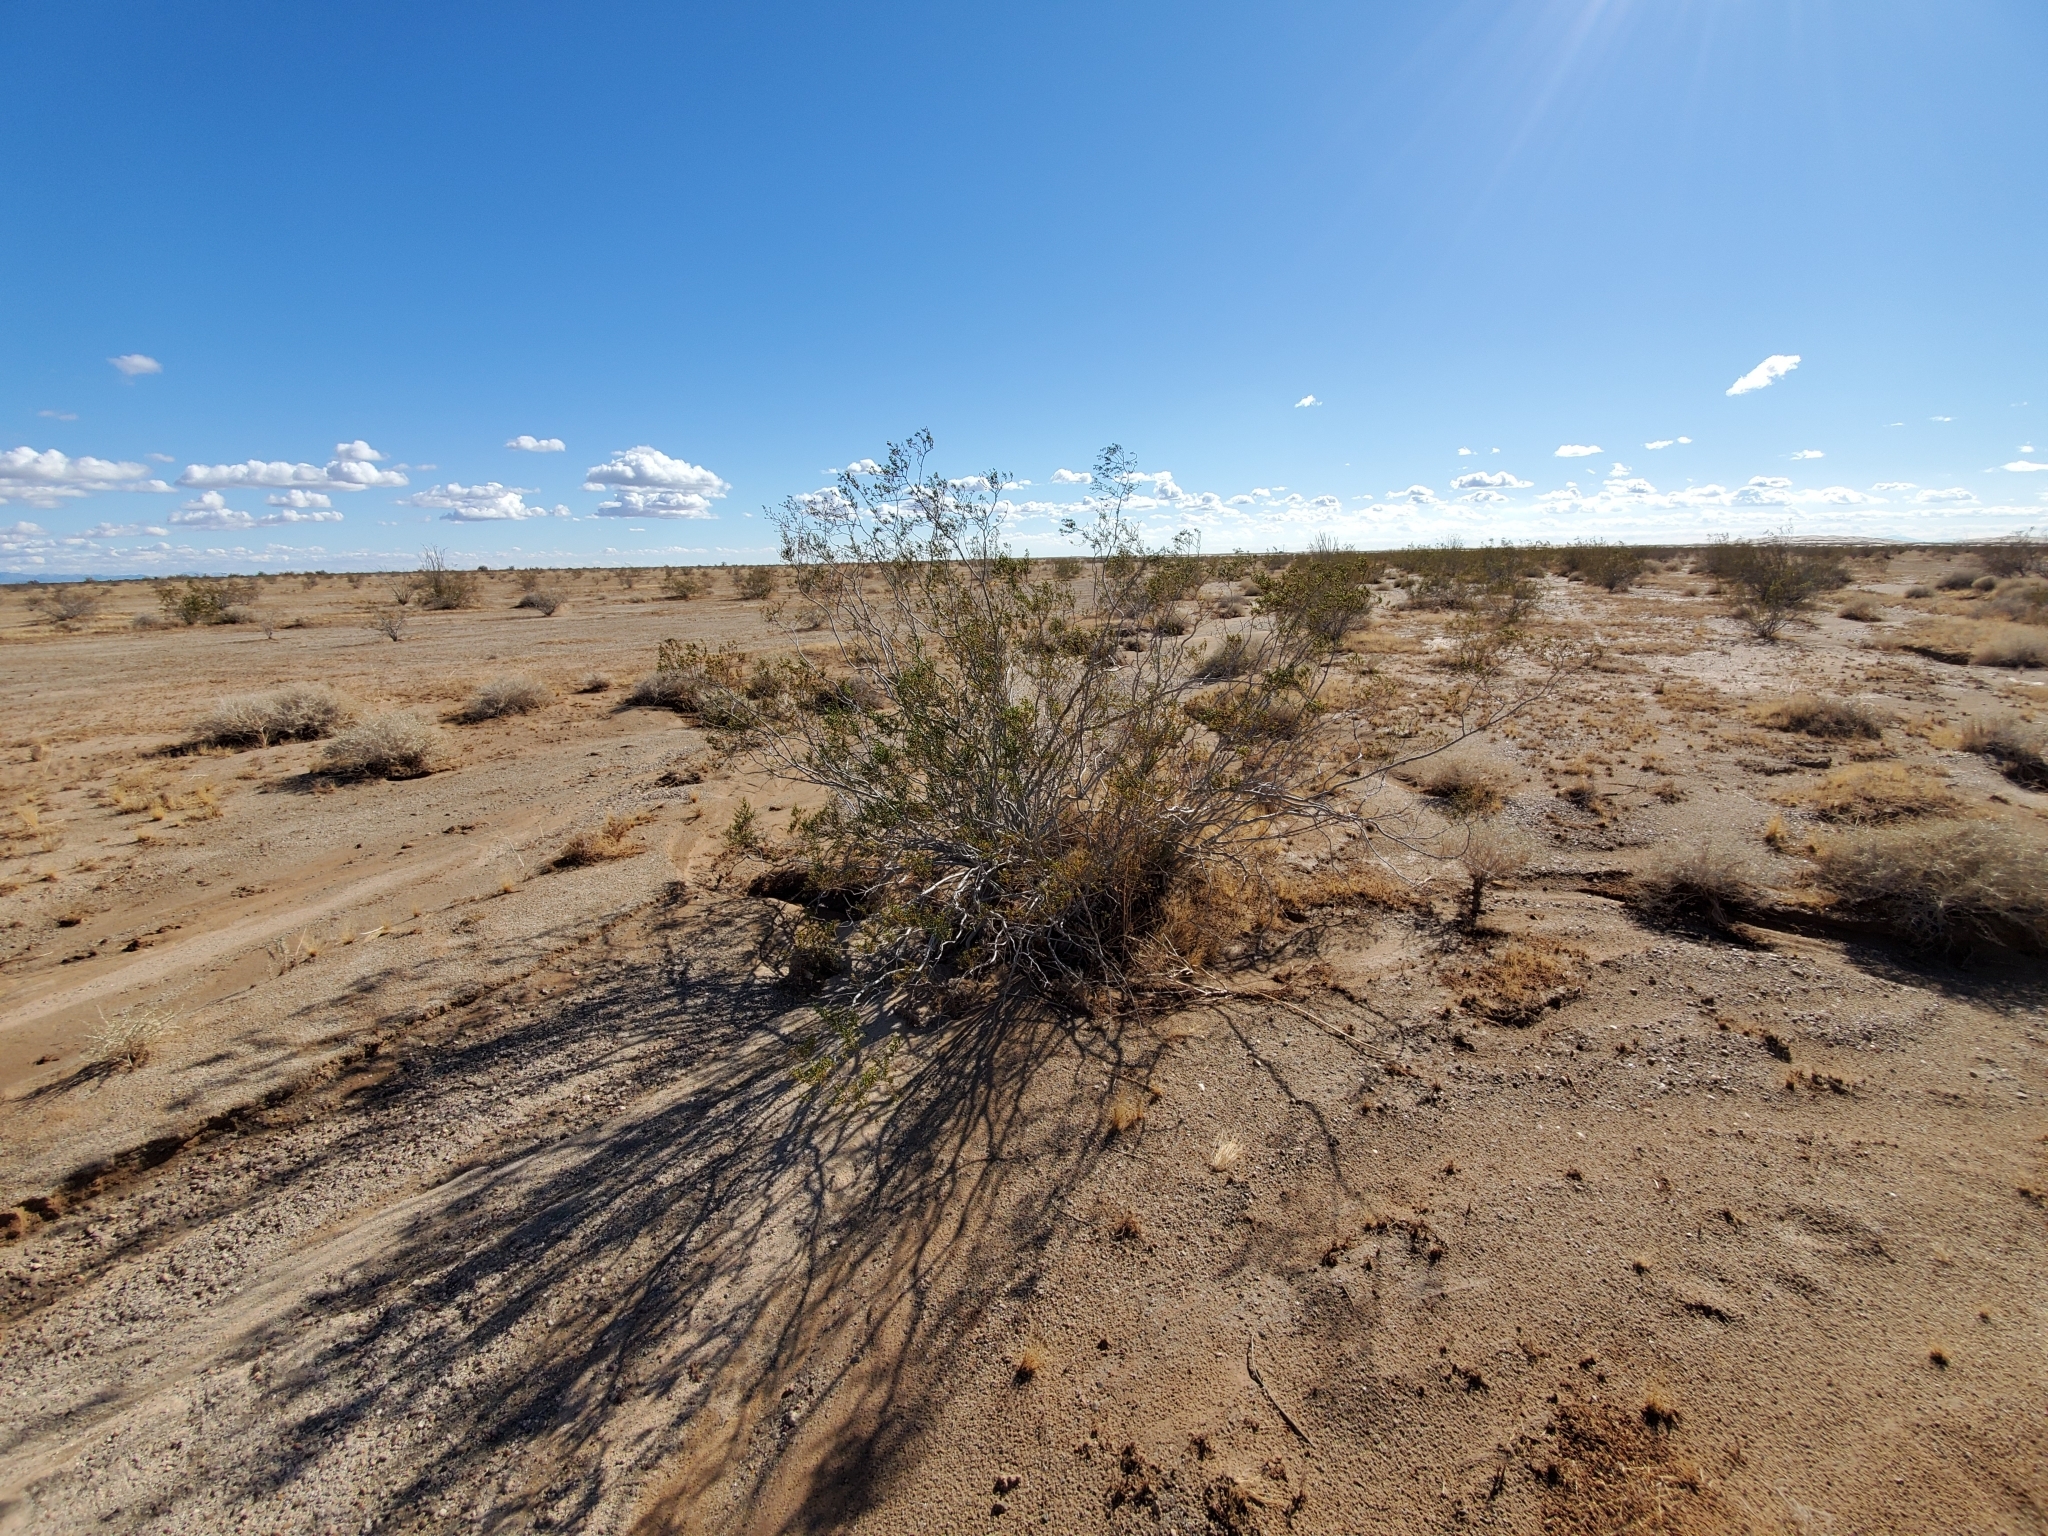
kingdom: Plantae
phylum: Tracheophyta
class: Magnoliopsida
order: Zygophyllales
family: Zygophyllaceae
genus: Larrea
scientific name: Larrea tridentata
